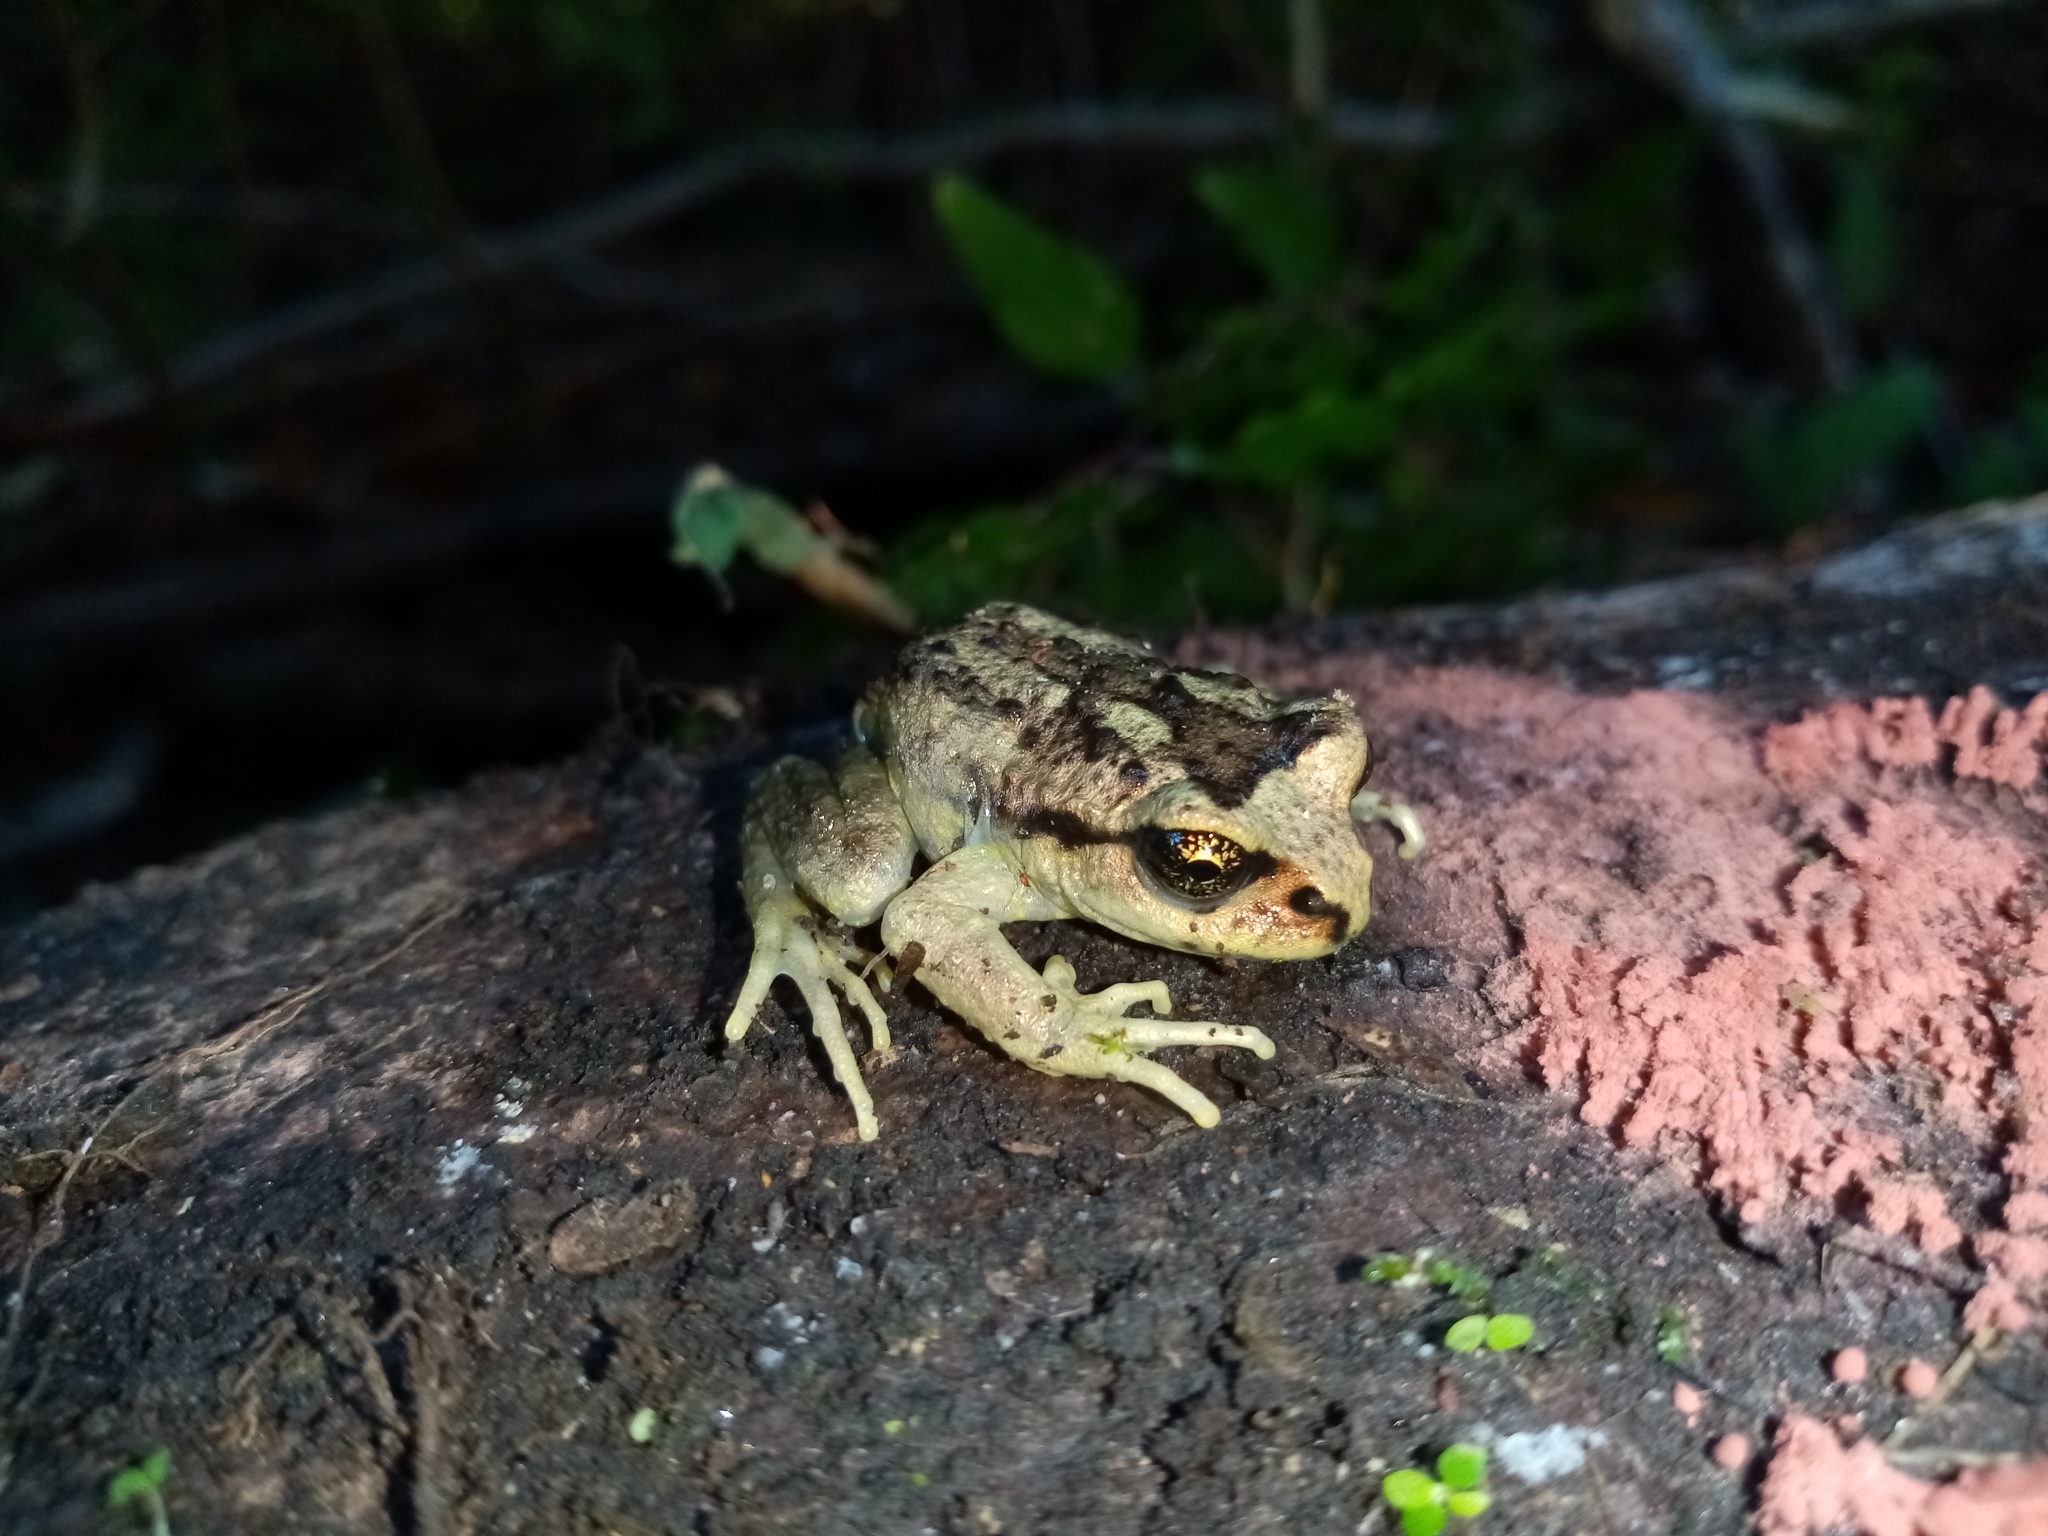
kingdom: Animalia
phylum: Chordata
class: Amphibia
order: Anura
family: Alsodidae
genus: Alsodes
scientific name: Alsodes verrucosus
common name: Olive spiny-chest frog
